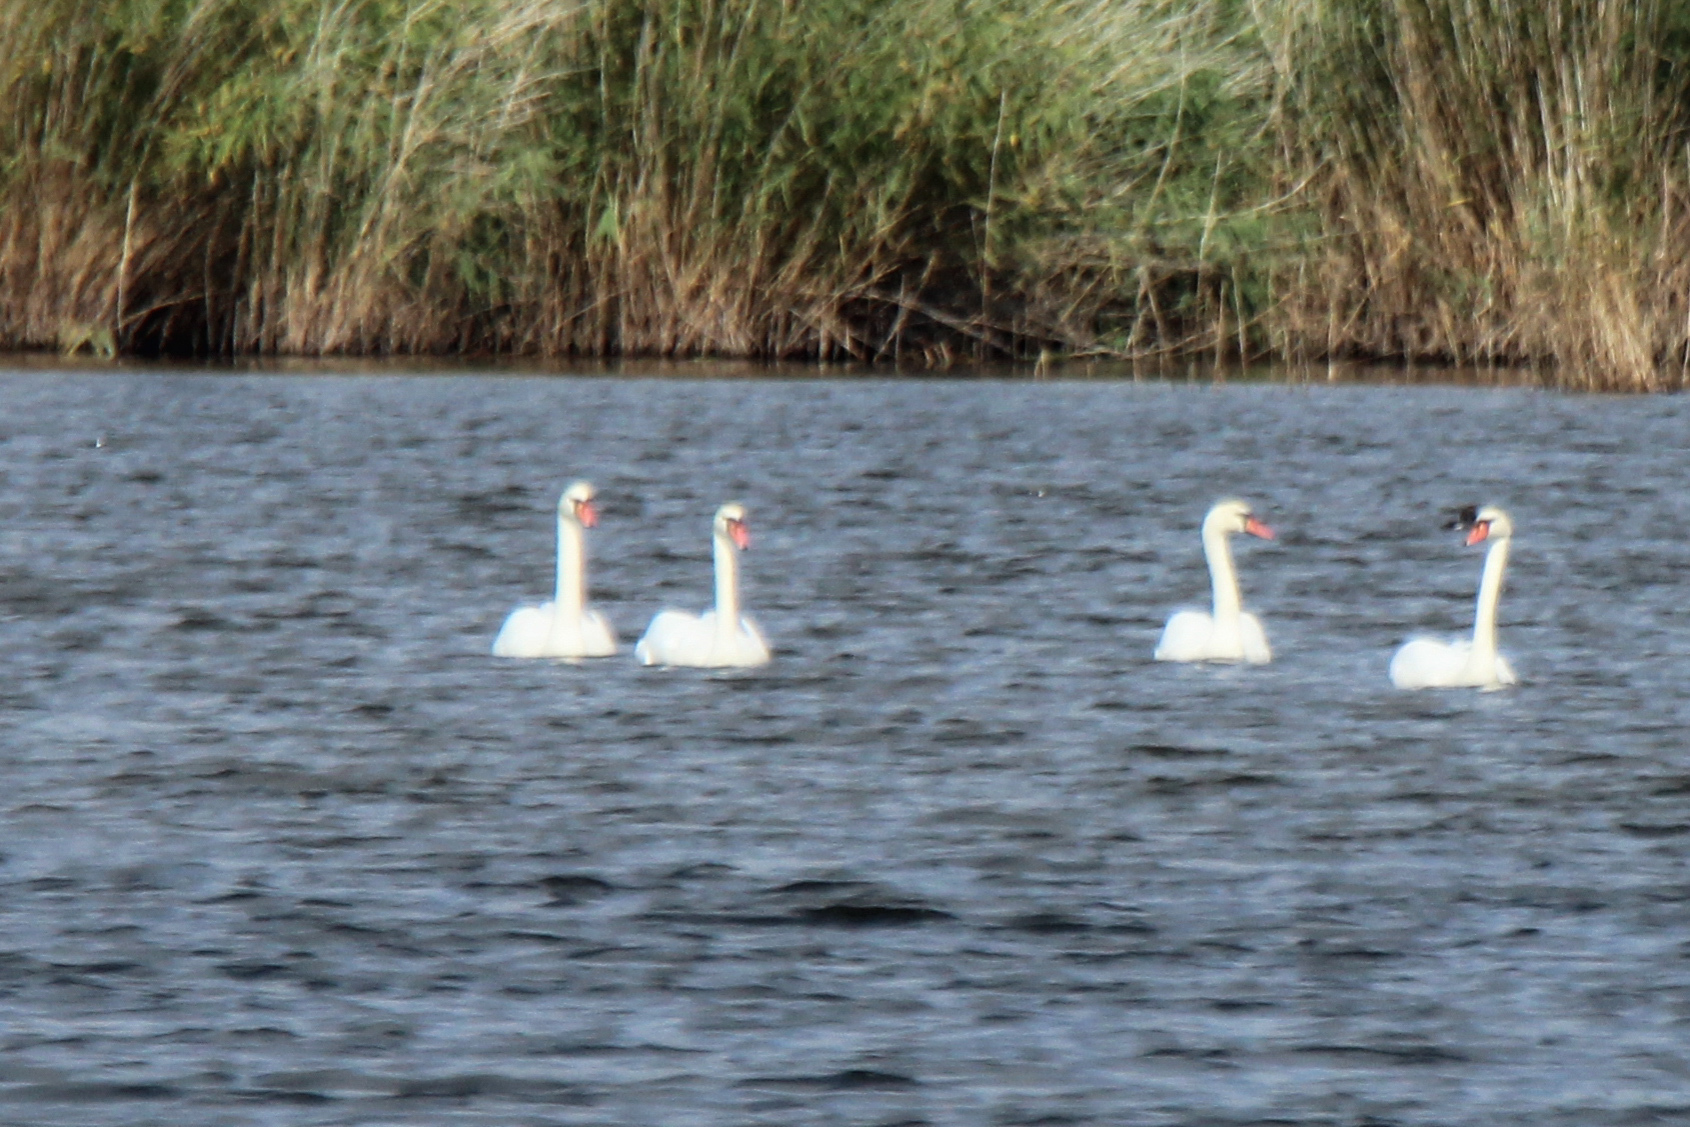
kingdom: Animalia
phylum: Chordata
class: Aves
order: Anseriformes
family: Anatidae
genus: Cygnus
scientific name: Cygnus olor
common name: Mute swan
